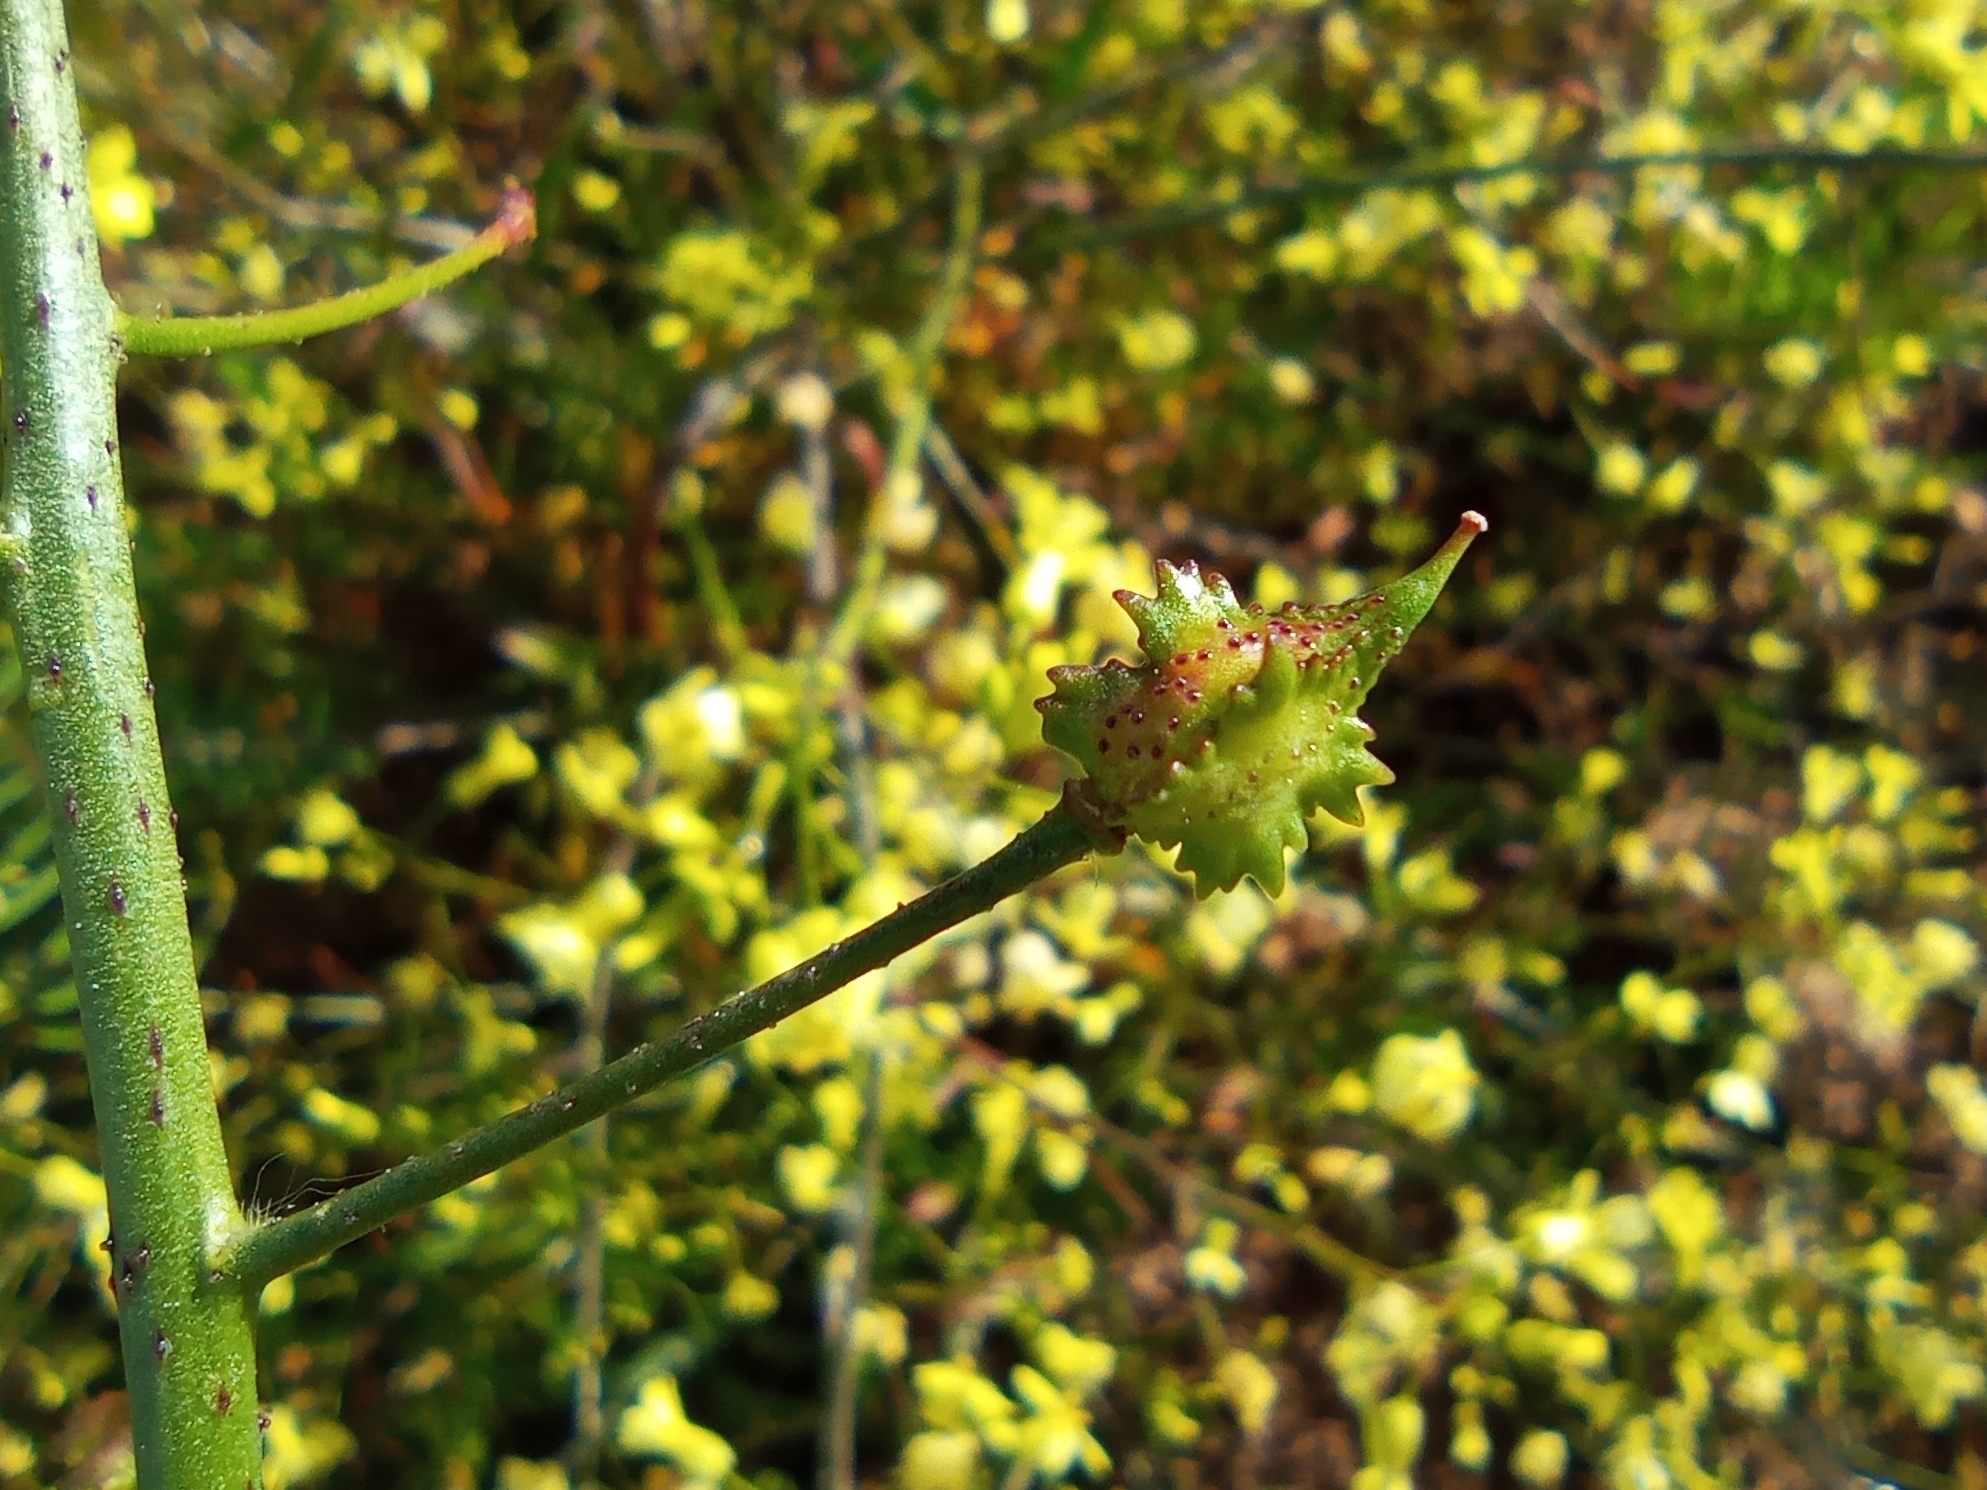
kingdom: Plantae
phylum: Tracheophyta
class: Magnoliopsida
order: Brassicales
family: Brassicaceae
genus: Bunias
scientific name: Bunias erucago
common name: Southern warty-cabbage
